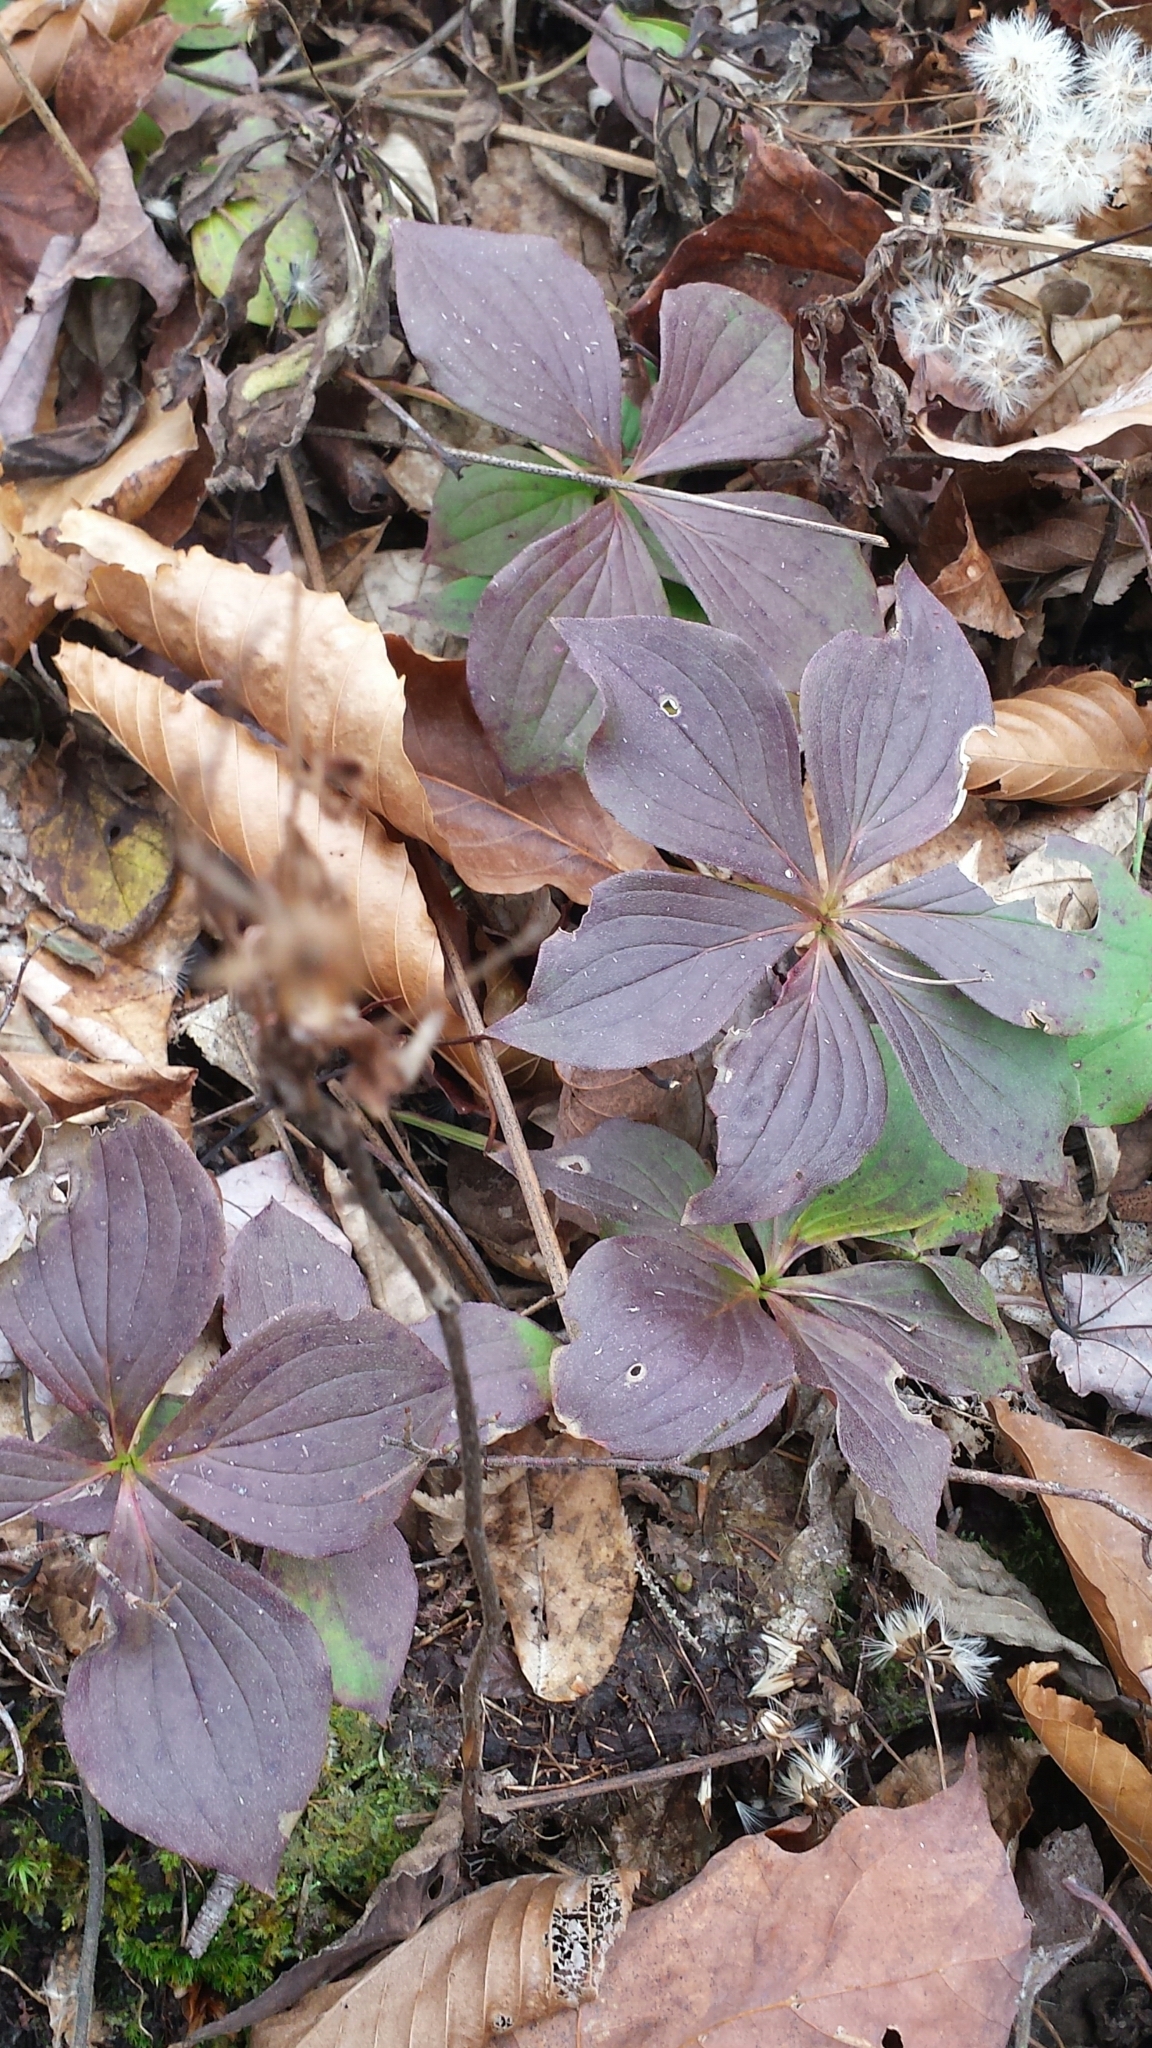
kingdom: Plantae
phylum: Tracheophyta
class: Magnoliopsida
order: Cornales
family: Cornaceae
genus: Cornus
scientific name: Cornus canadensis
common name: Creeping dogwood
